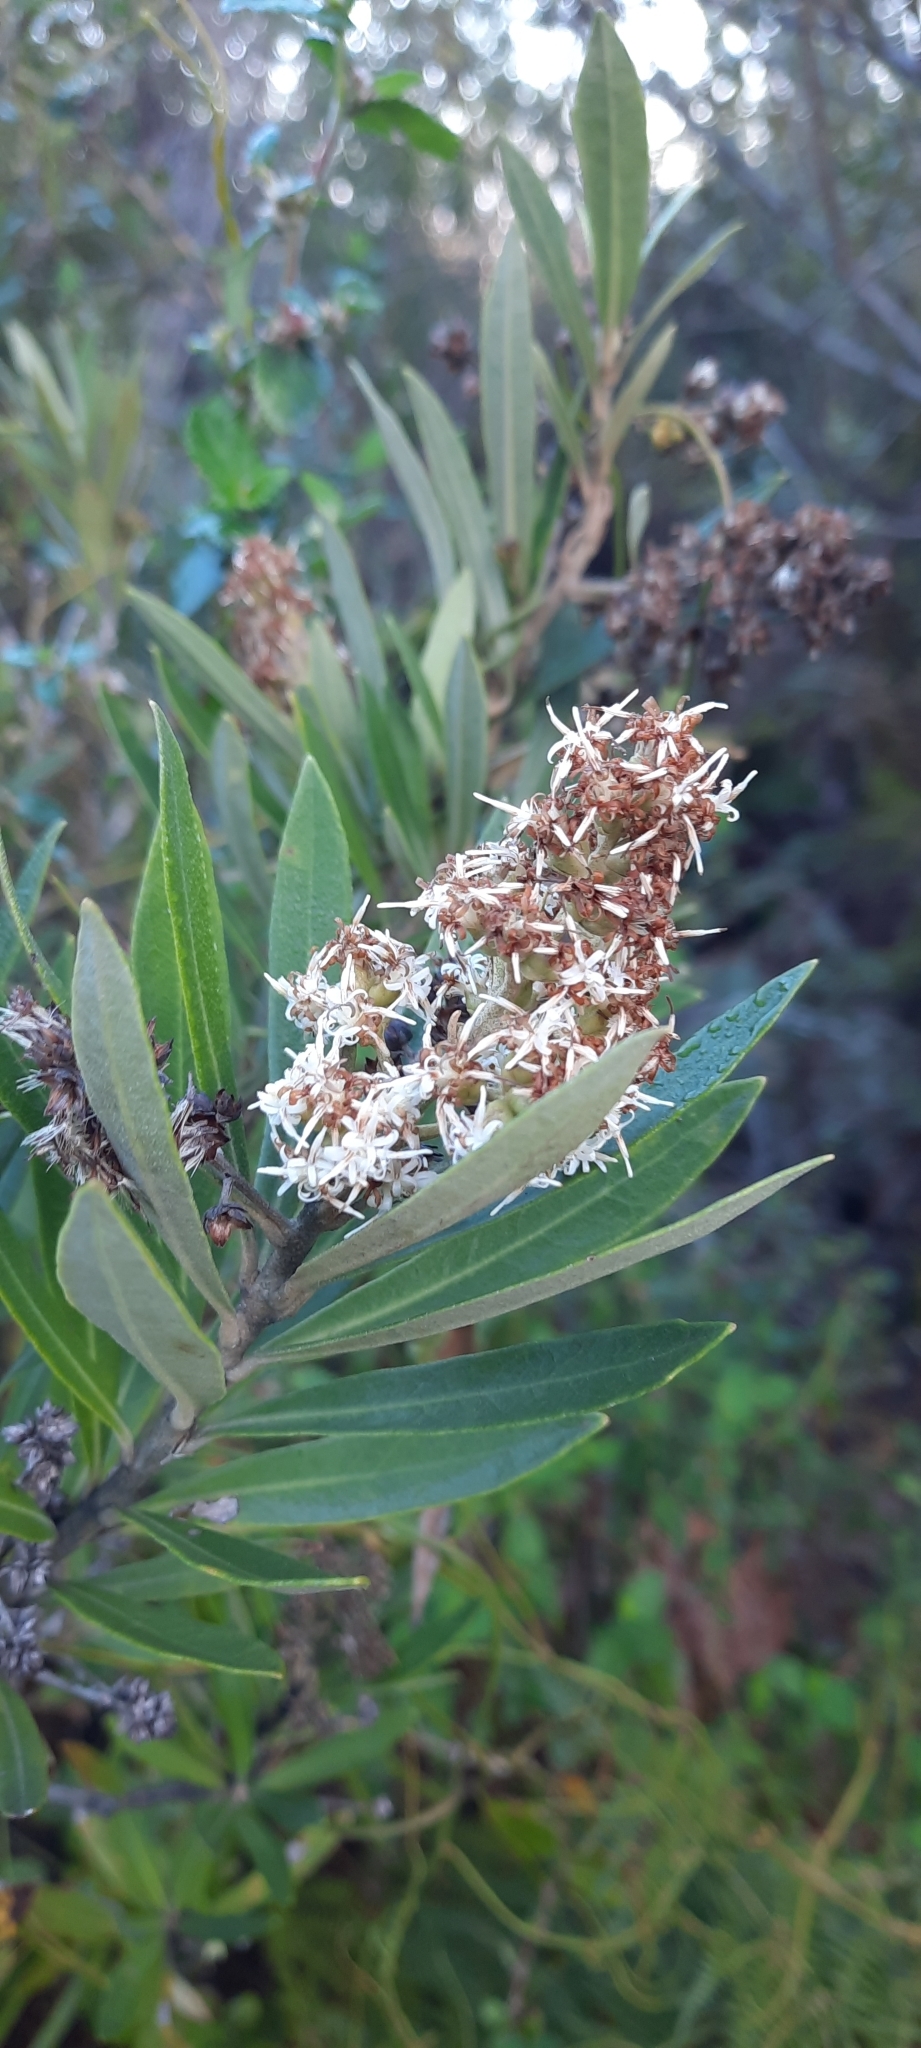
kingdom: Plantae
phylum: Tracheophyta
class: Magnoliopsida
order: Asterales
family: Asteraceae
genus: Brachylaena
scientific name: Brachylaena neriifolia
